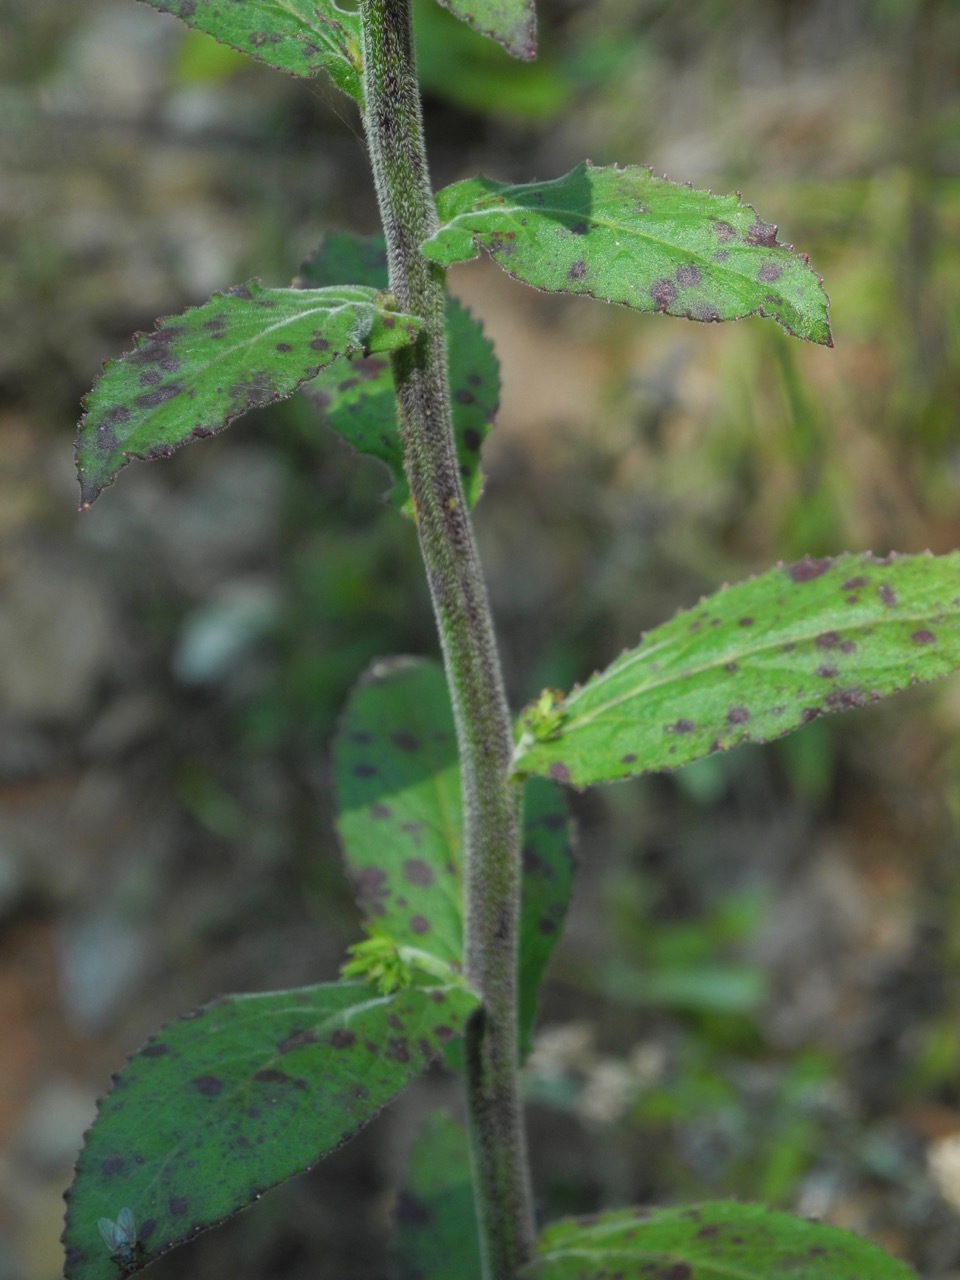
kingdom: Plantae
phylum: Tracheophyta
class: Magnoliopsida
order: Asterales
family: Campanulaceae
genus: Lobelia
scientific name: Lobelia puberula
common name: Purple dewdrop
